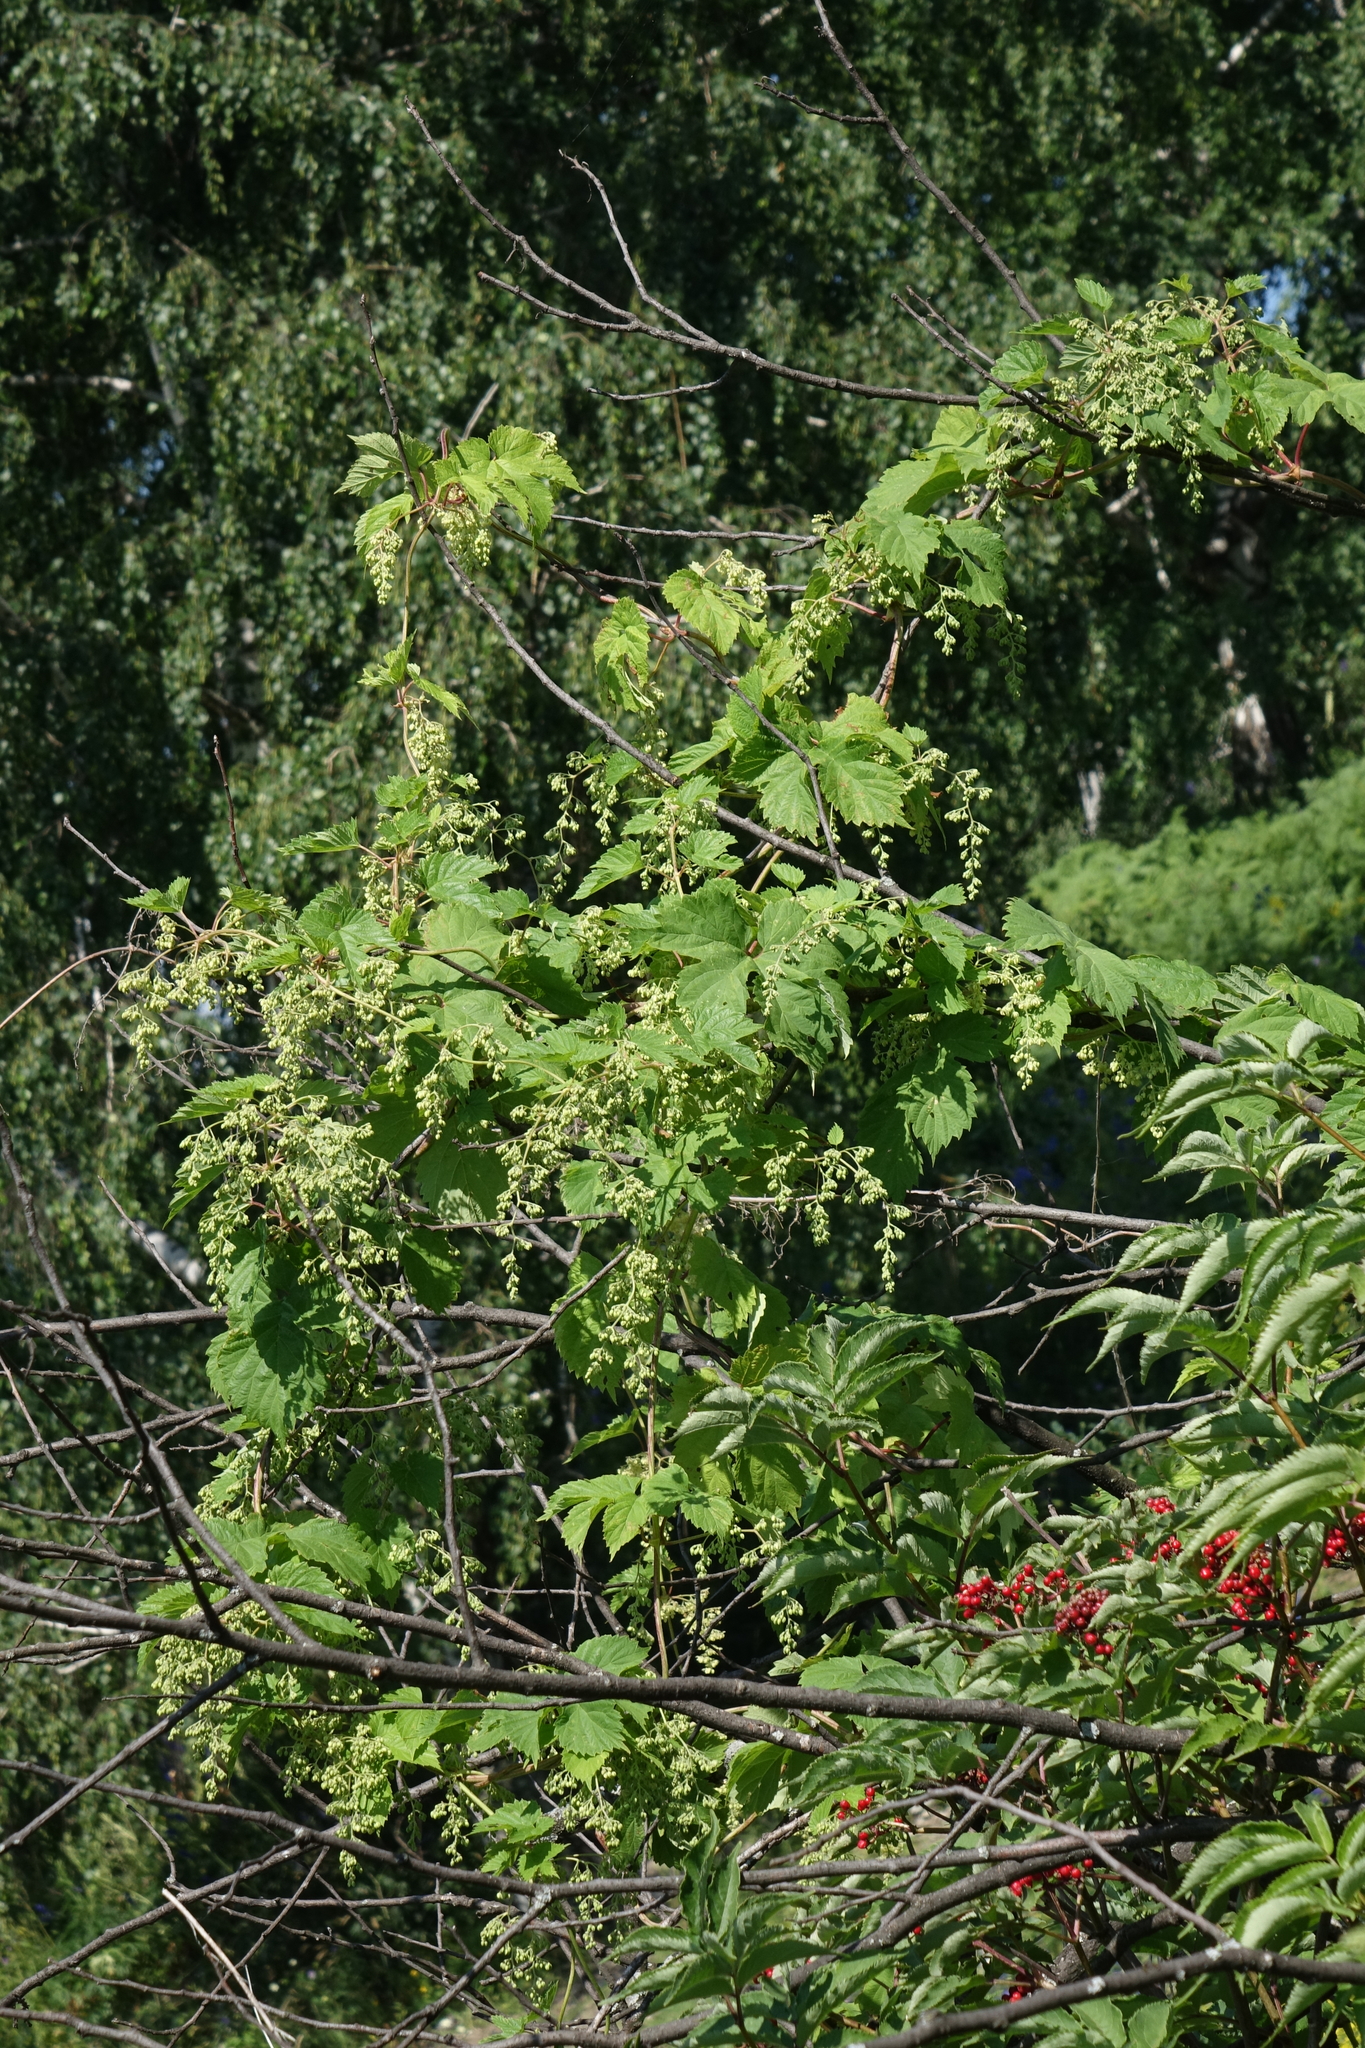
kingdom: Plantae
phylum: Tracheophyta
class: Magnoliopsida
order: Rosales
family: Cannabaceae
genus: Humulus
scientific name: Humulus lupulus
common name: Hop
